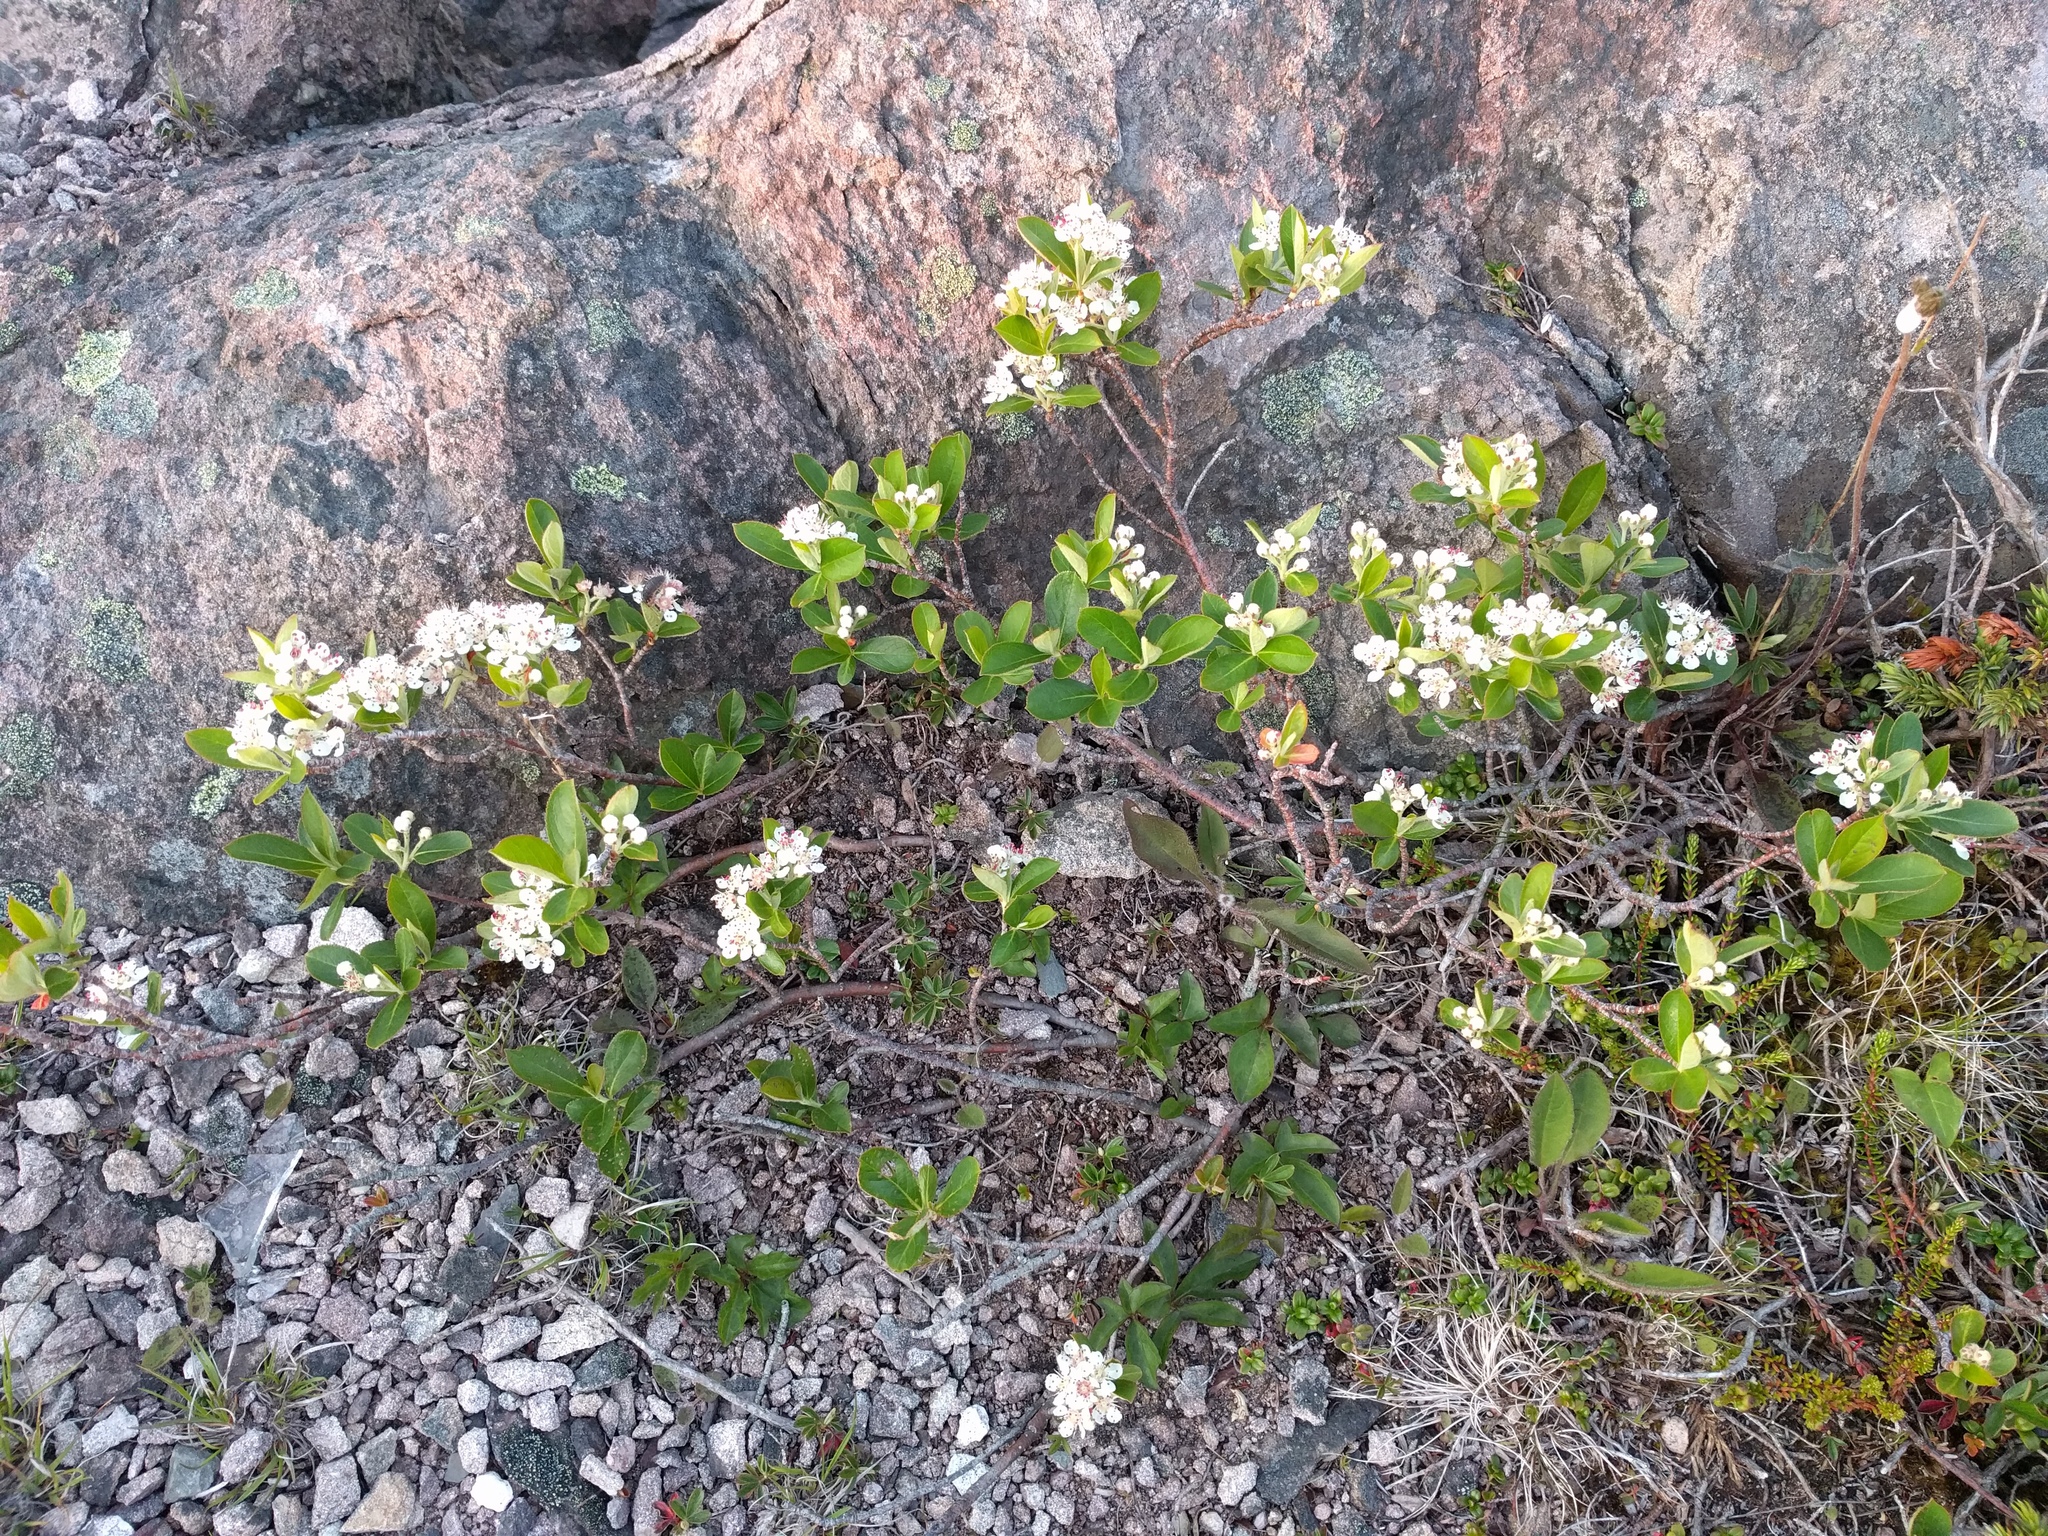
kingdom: Plantae
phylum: Tracheophyta
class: Magnoliopsida
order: Rosales
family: Rosaceae
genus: Aronia
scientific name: Aronia melanocarpa
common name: Black chokeberry
